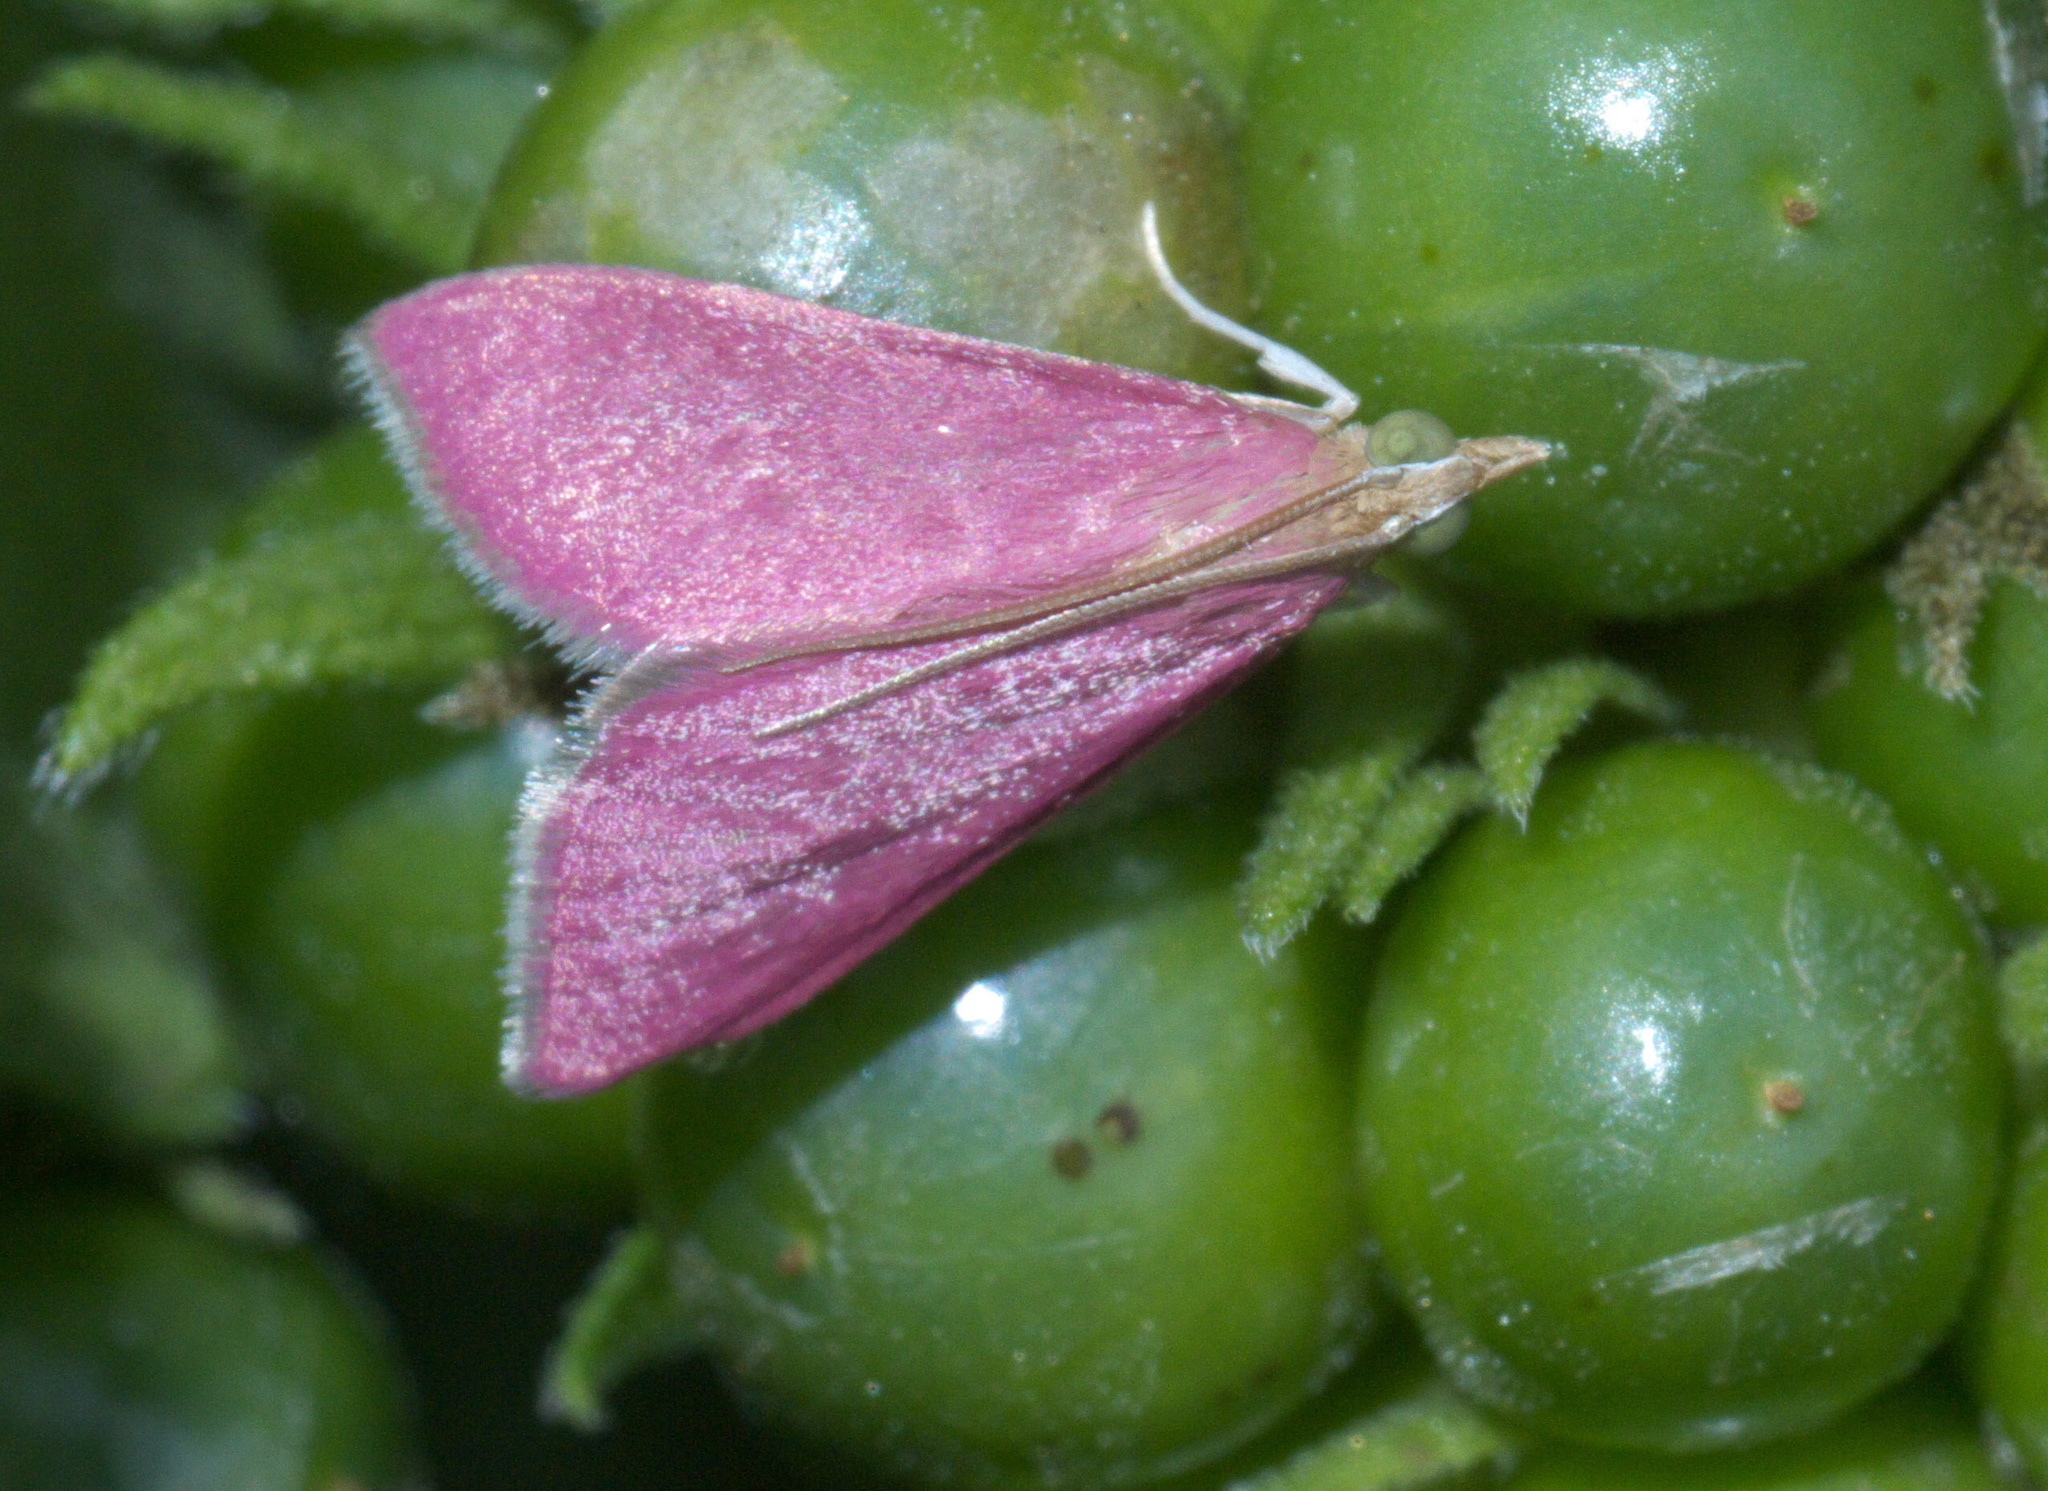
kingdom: Animalia
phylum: Arthropoda
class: Insecta
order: Lepidoptera
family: Crambidae
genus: Pyrausta
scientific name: Pyrausta inornatalis
